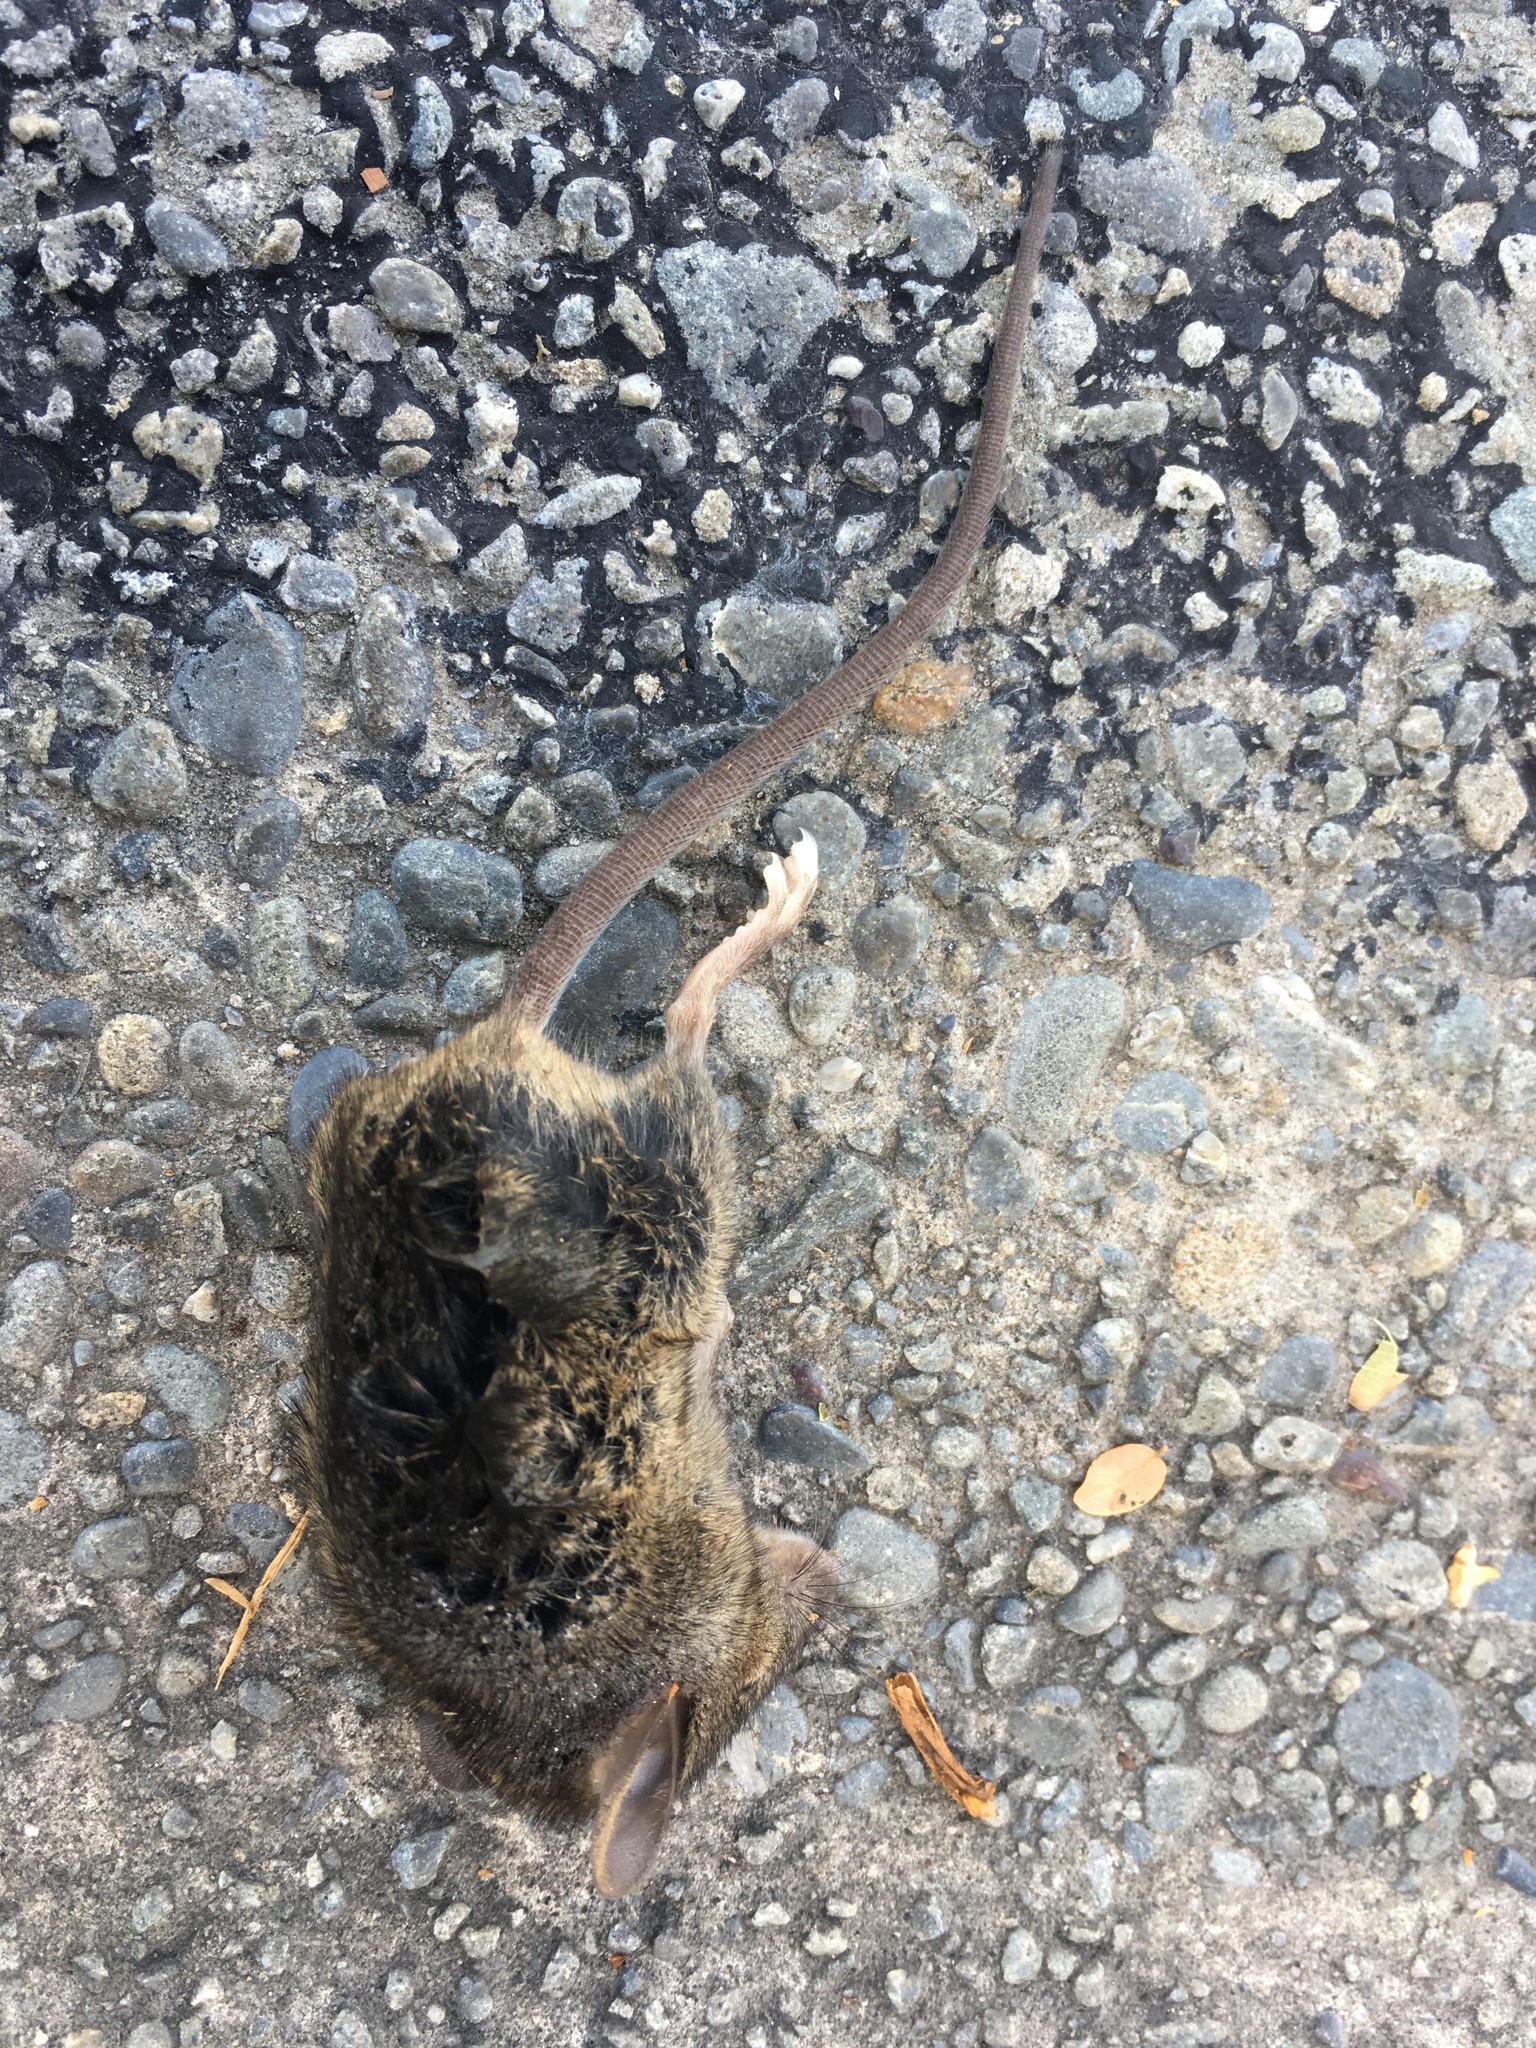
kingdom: Animalia
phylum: Chordata
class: Mammalia
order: Rodentia
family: Muridae
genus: Mus
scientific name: Mus musculus
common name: House mouse
